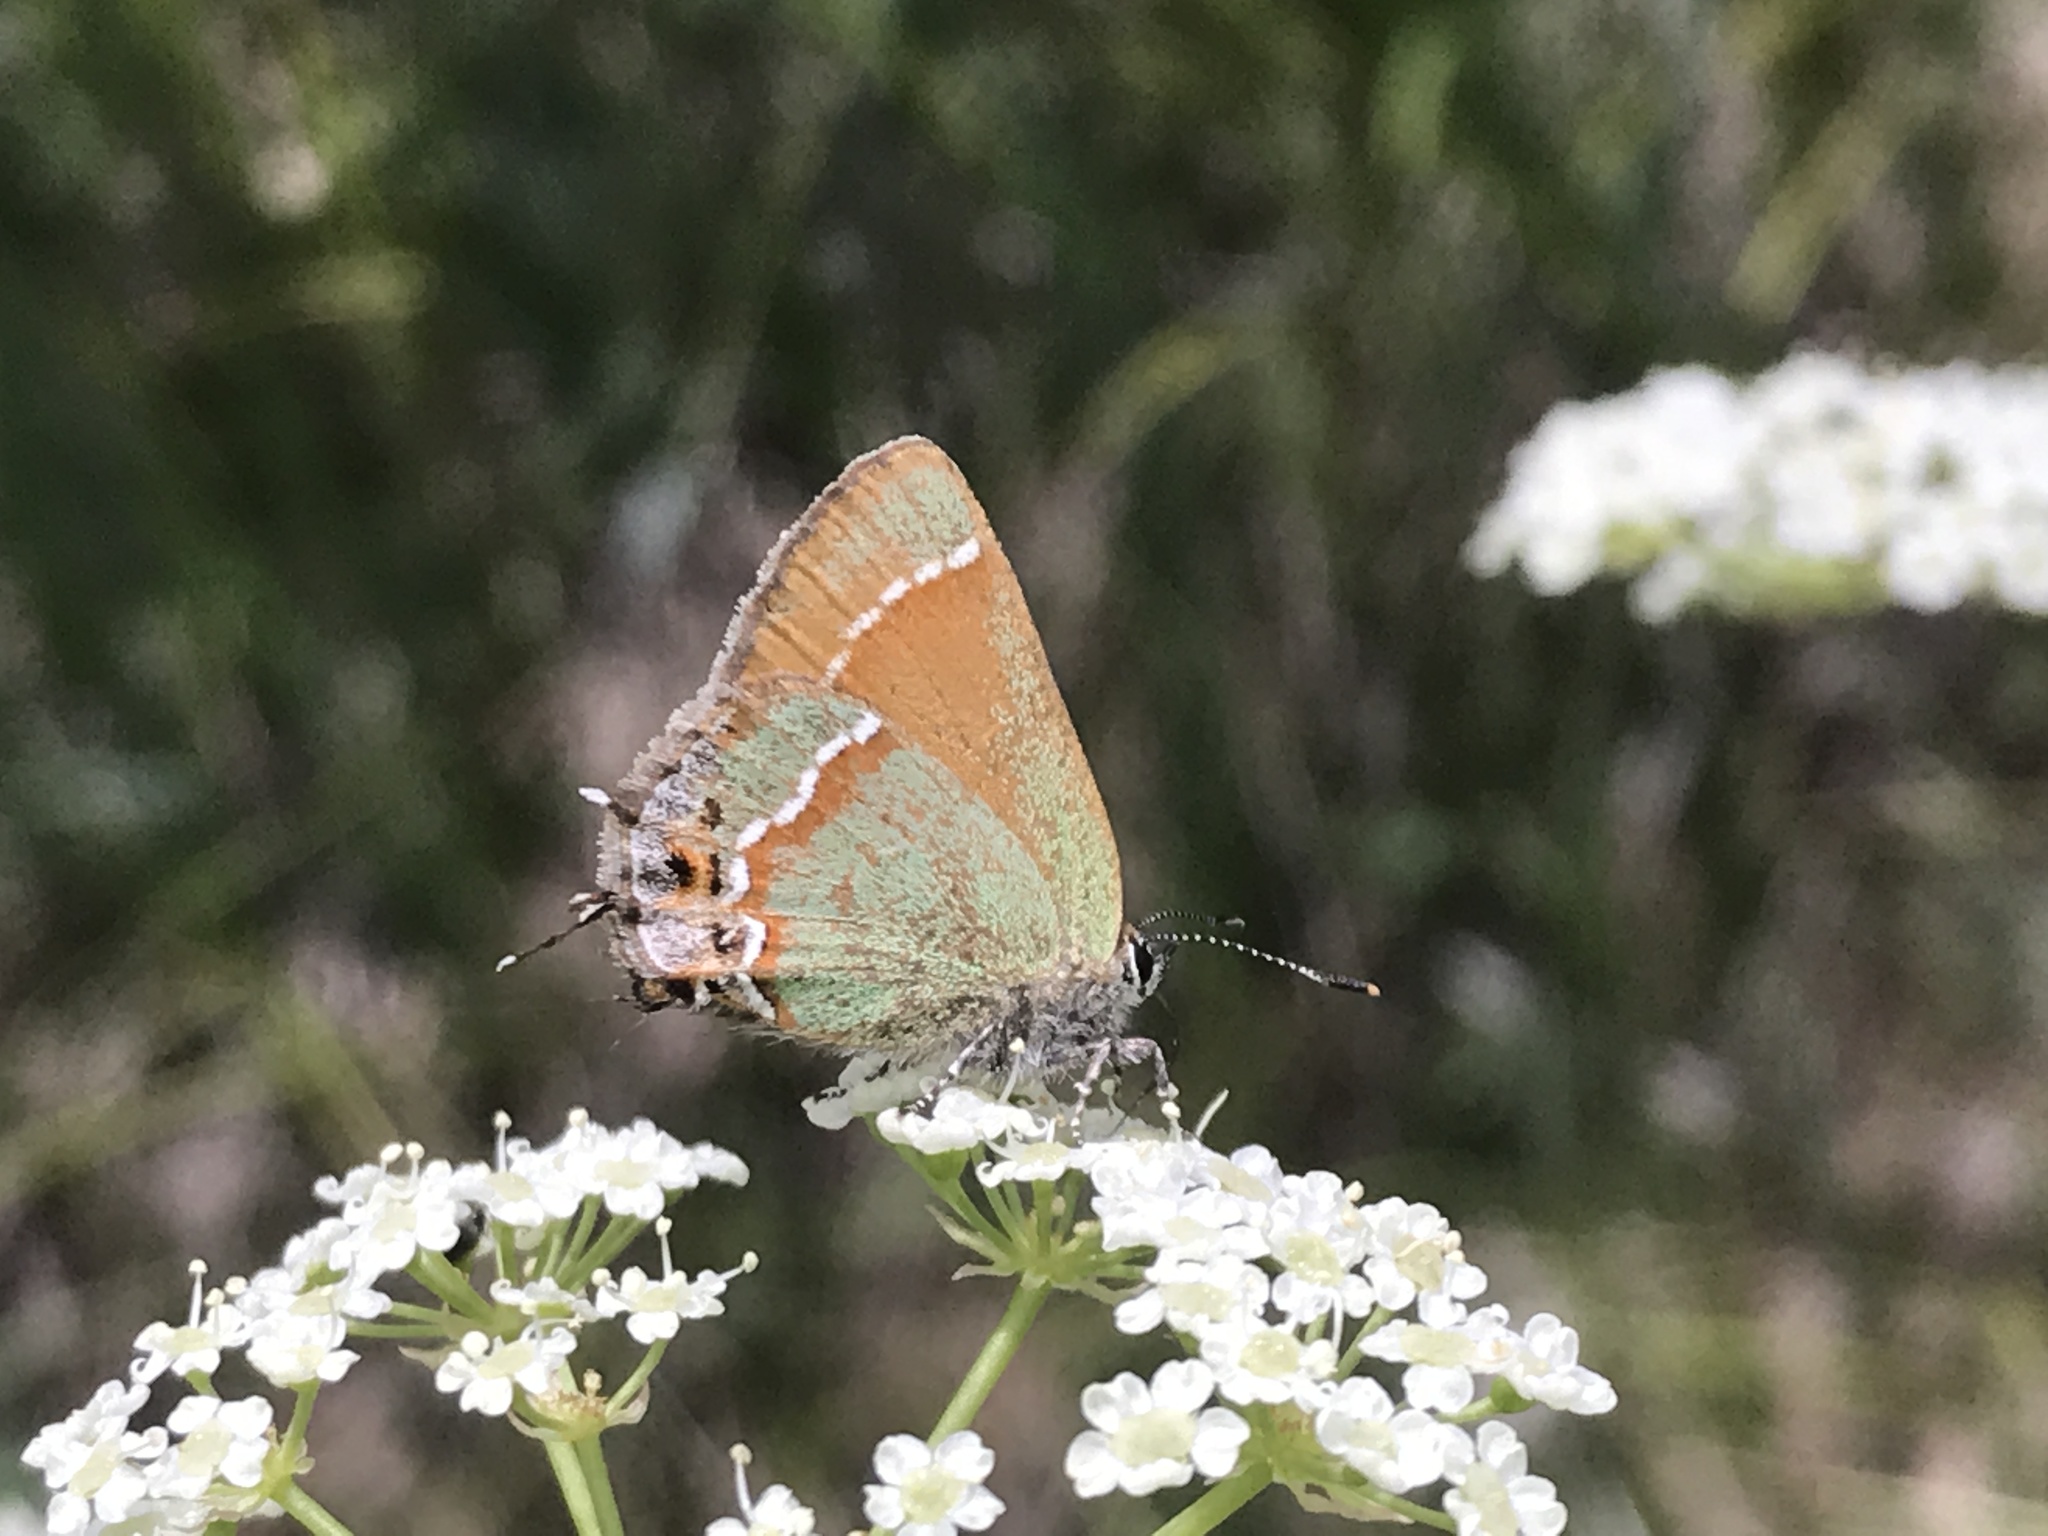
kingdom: Animalia
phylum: Arthropoda
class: Insecta
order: Lepidoptera
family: Lycaenidae
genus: Mitoura
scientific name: Mitoura siva
